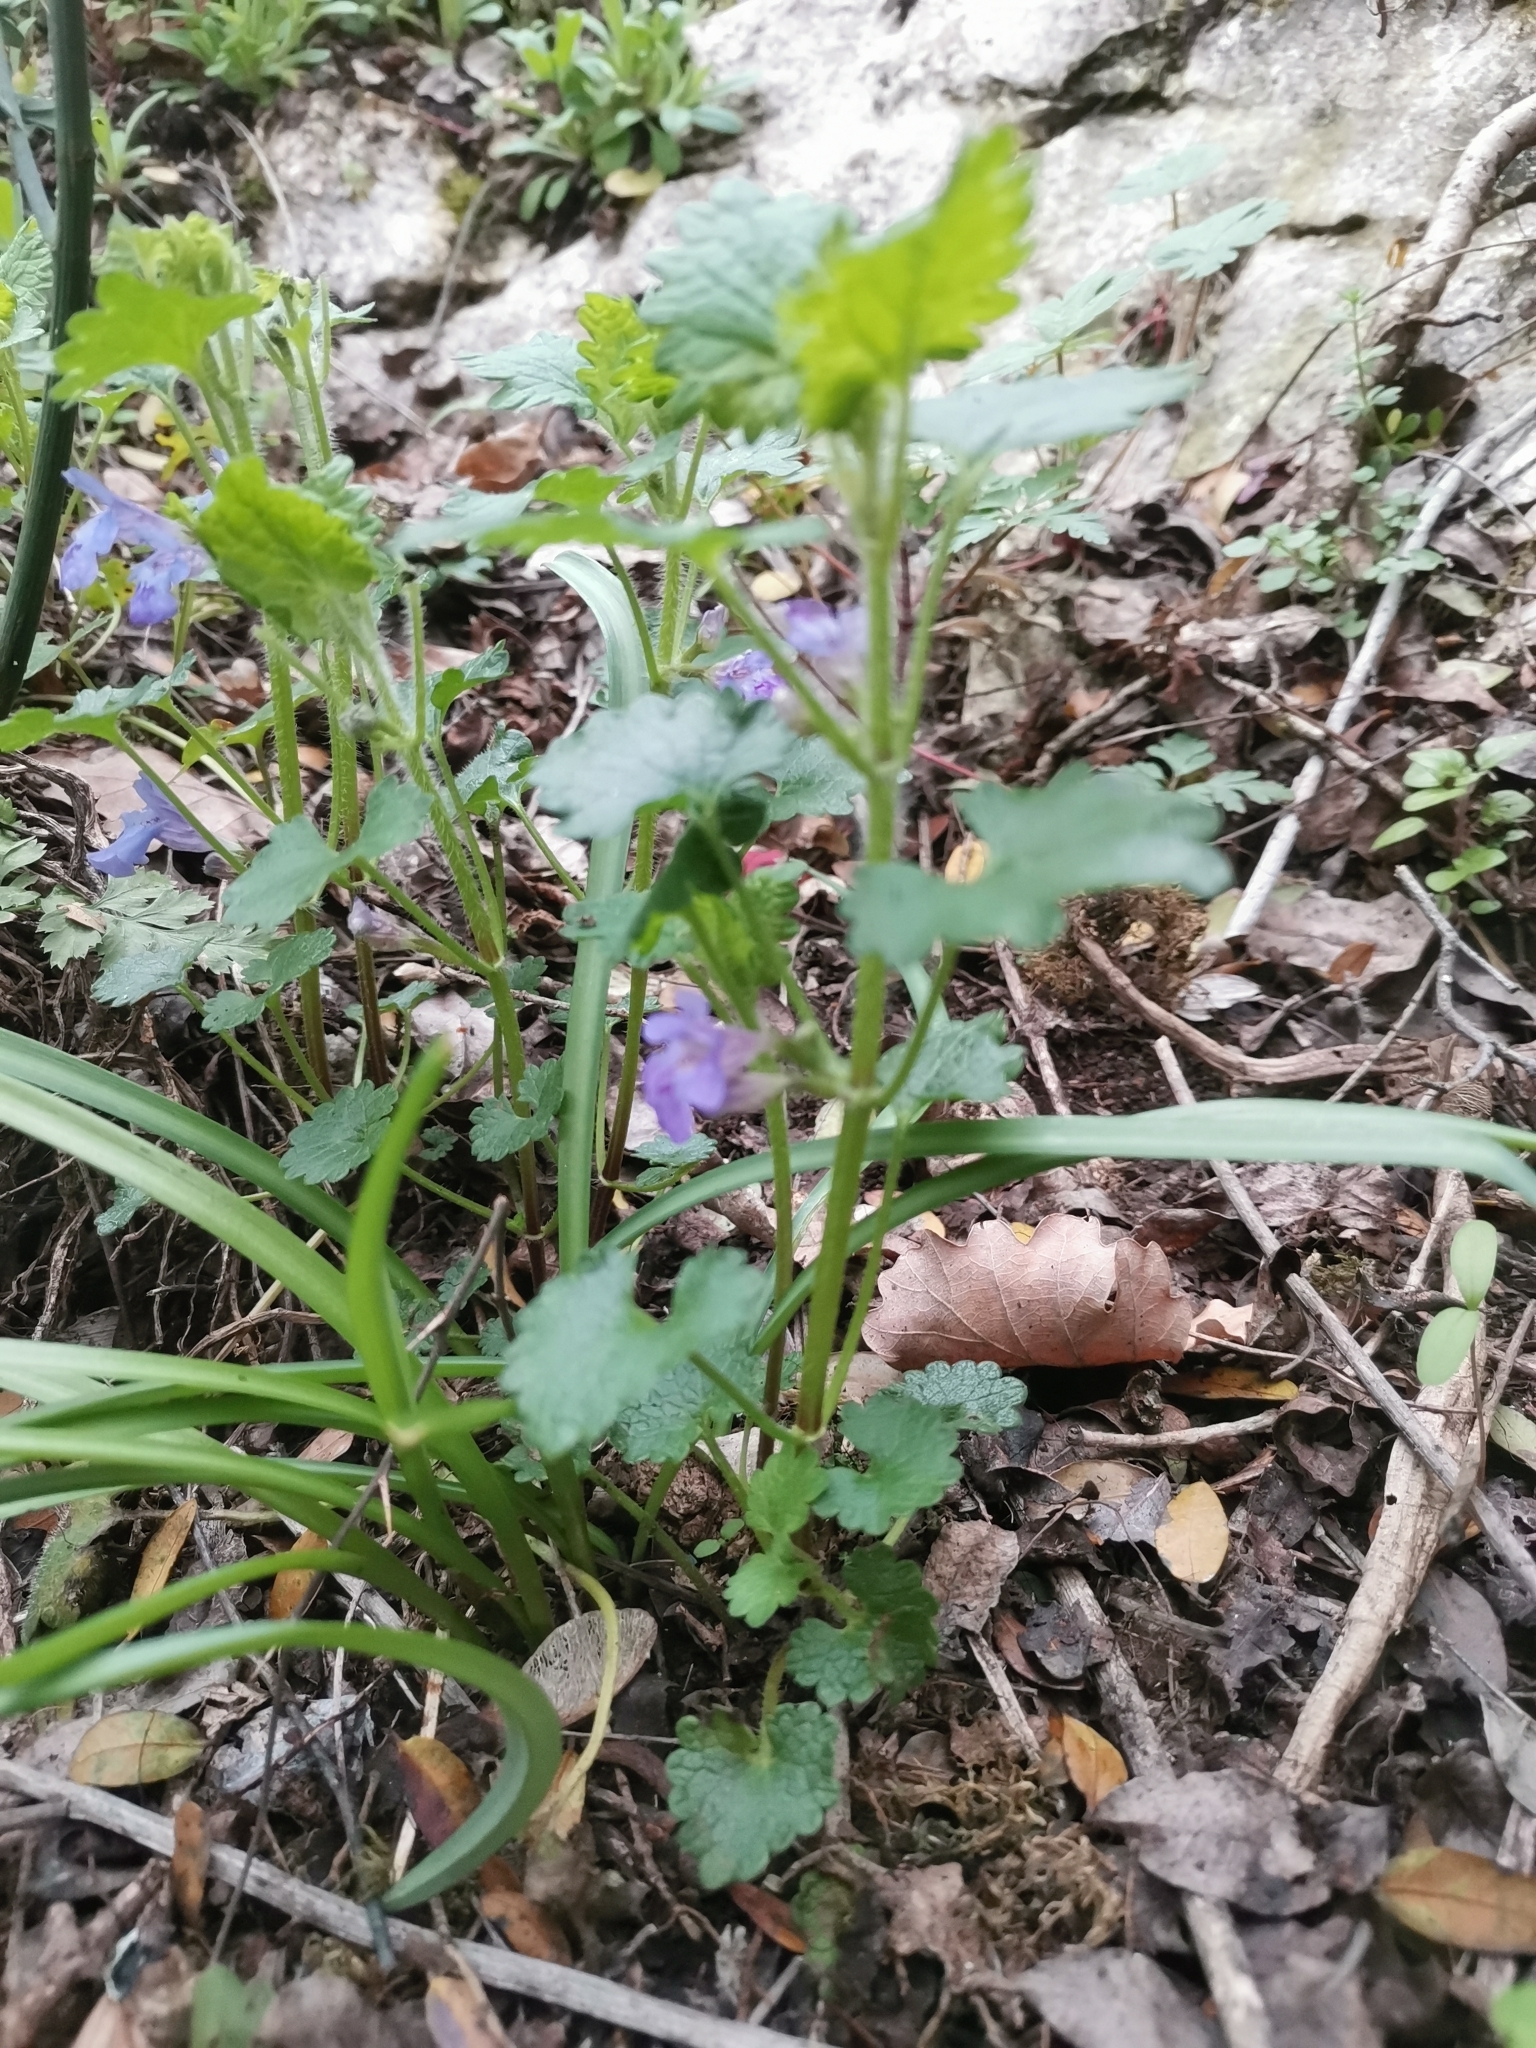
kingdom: Plantae
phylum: Tracheophyta
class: Magnoliopsida
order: Lamiales
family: Lamiaceae
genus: Glechoma
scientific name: Glechoma hirsuta
